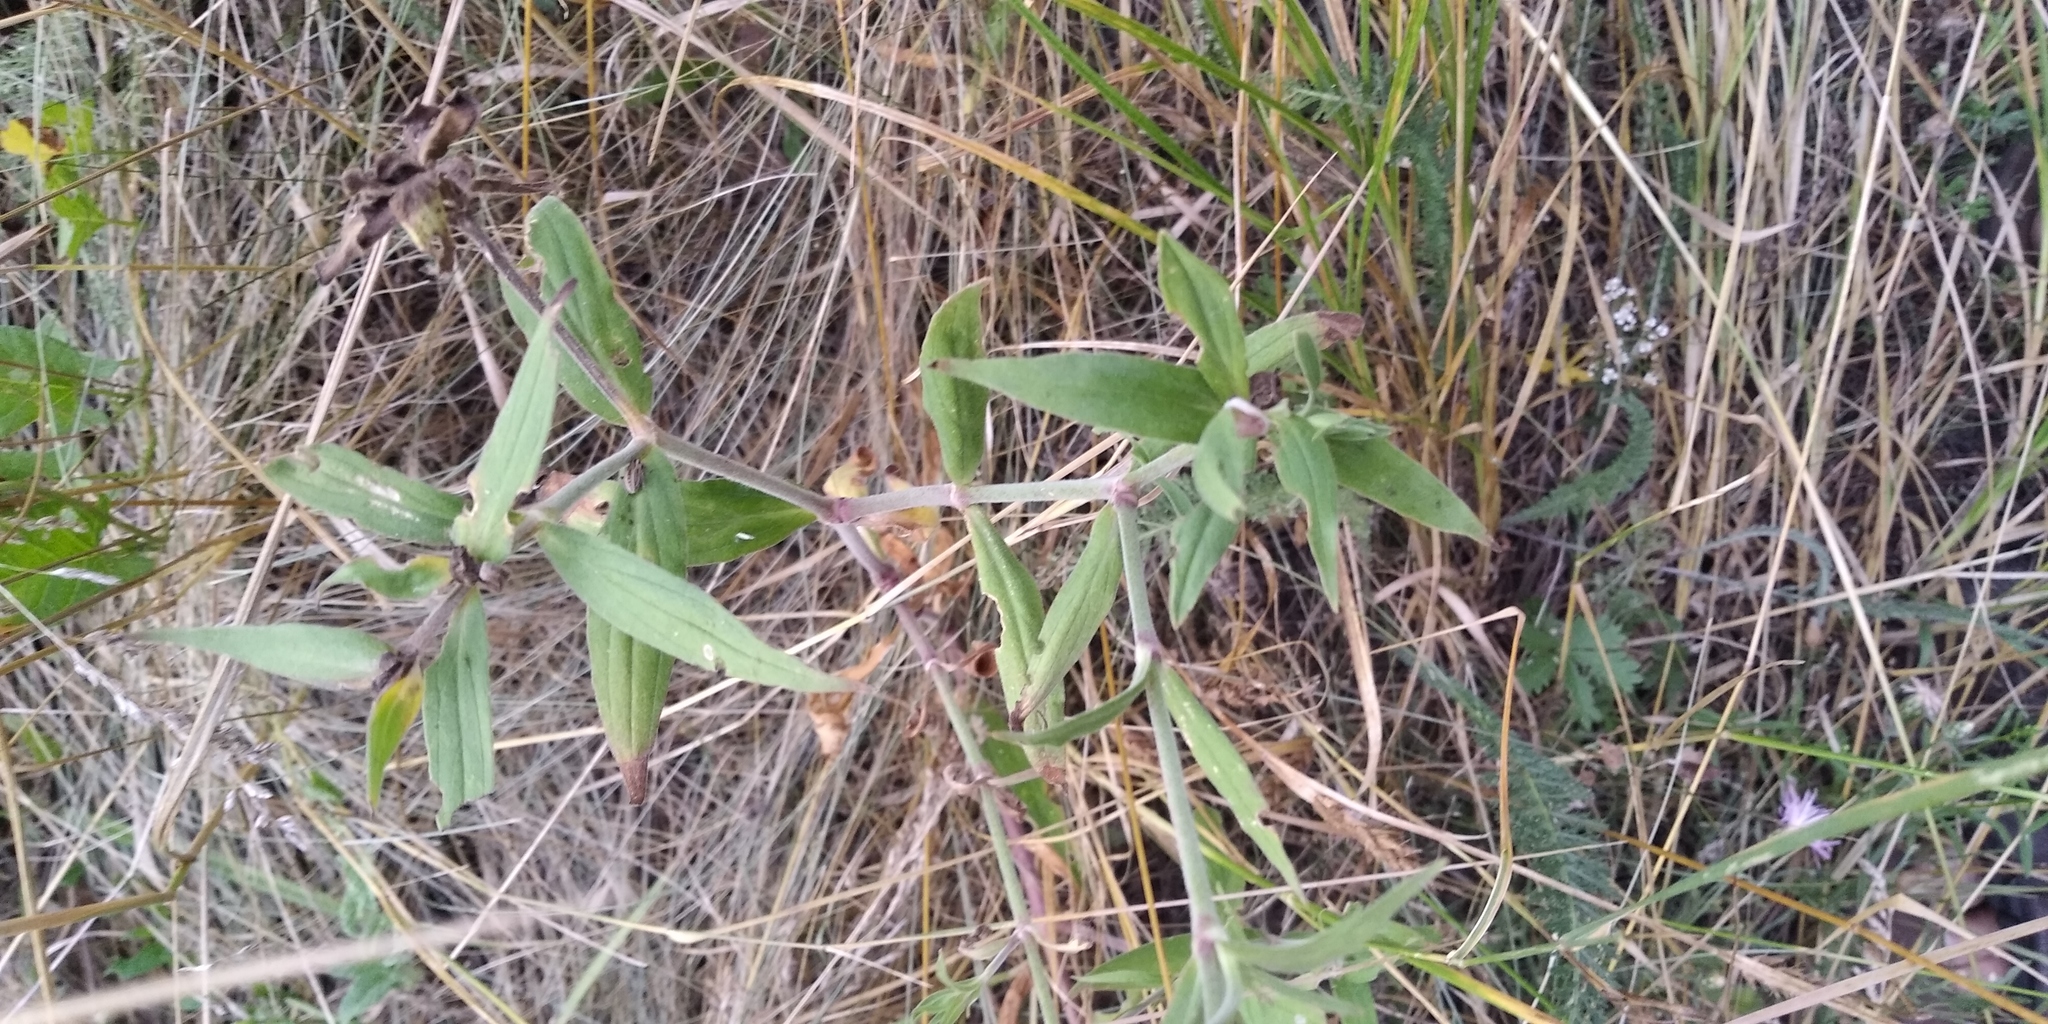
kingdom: Plantae
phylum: Tracheophyta
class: Magnoliopsida
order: Caryophyllales
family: Caryophyllaceae
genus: Silene
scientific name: Silene latifolia
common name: White campion
